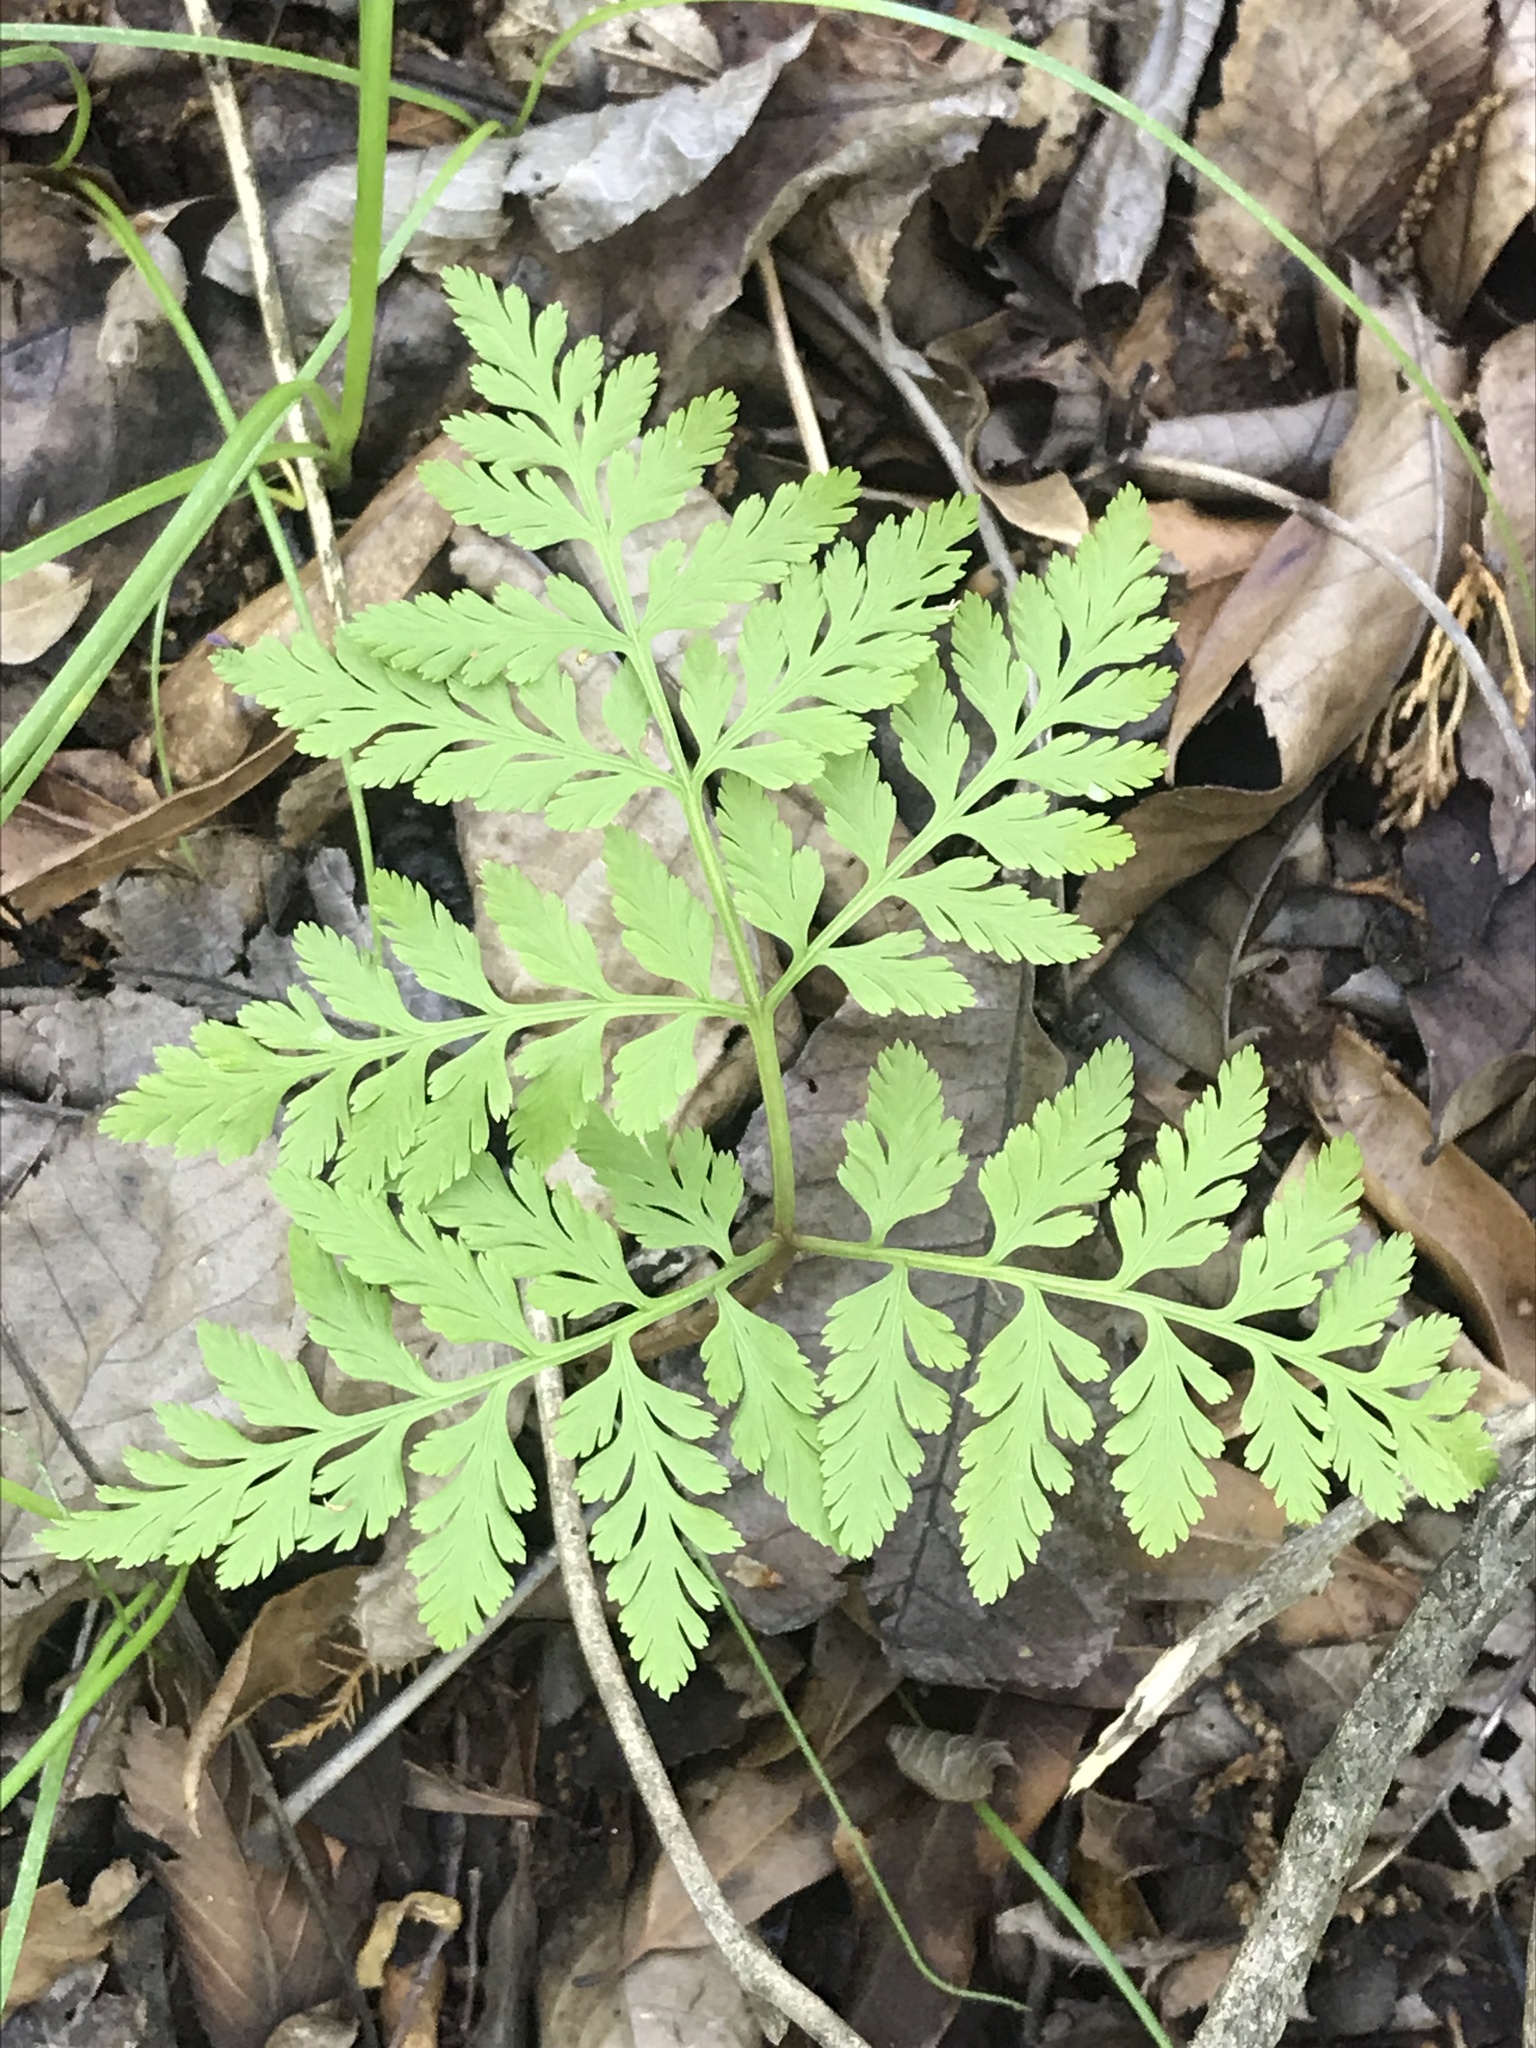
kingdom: Plantae
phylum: Tracheophyta
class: Polypodiopsida
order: Ophioglossales
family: Ophioglossaceae
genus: Botrypus
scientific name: Botrypus virginianus
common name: Common grapefern
